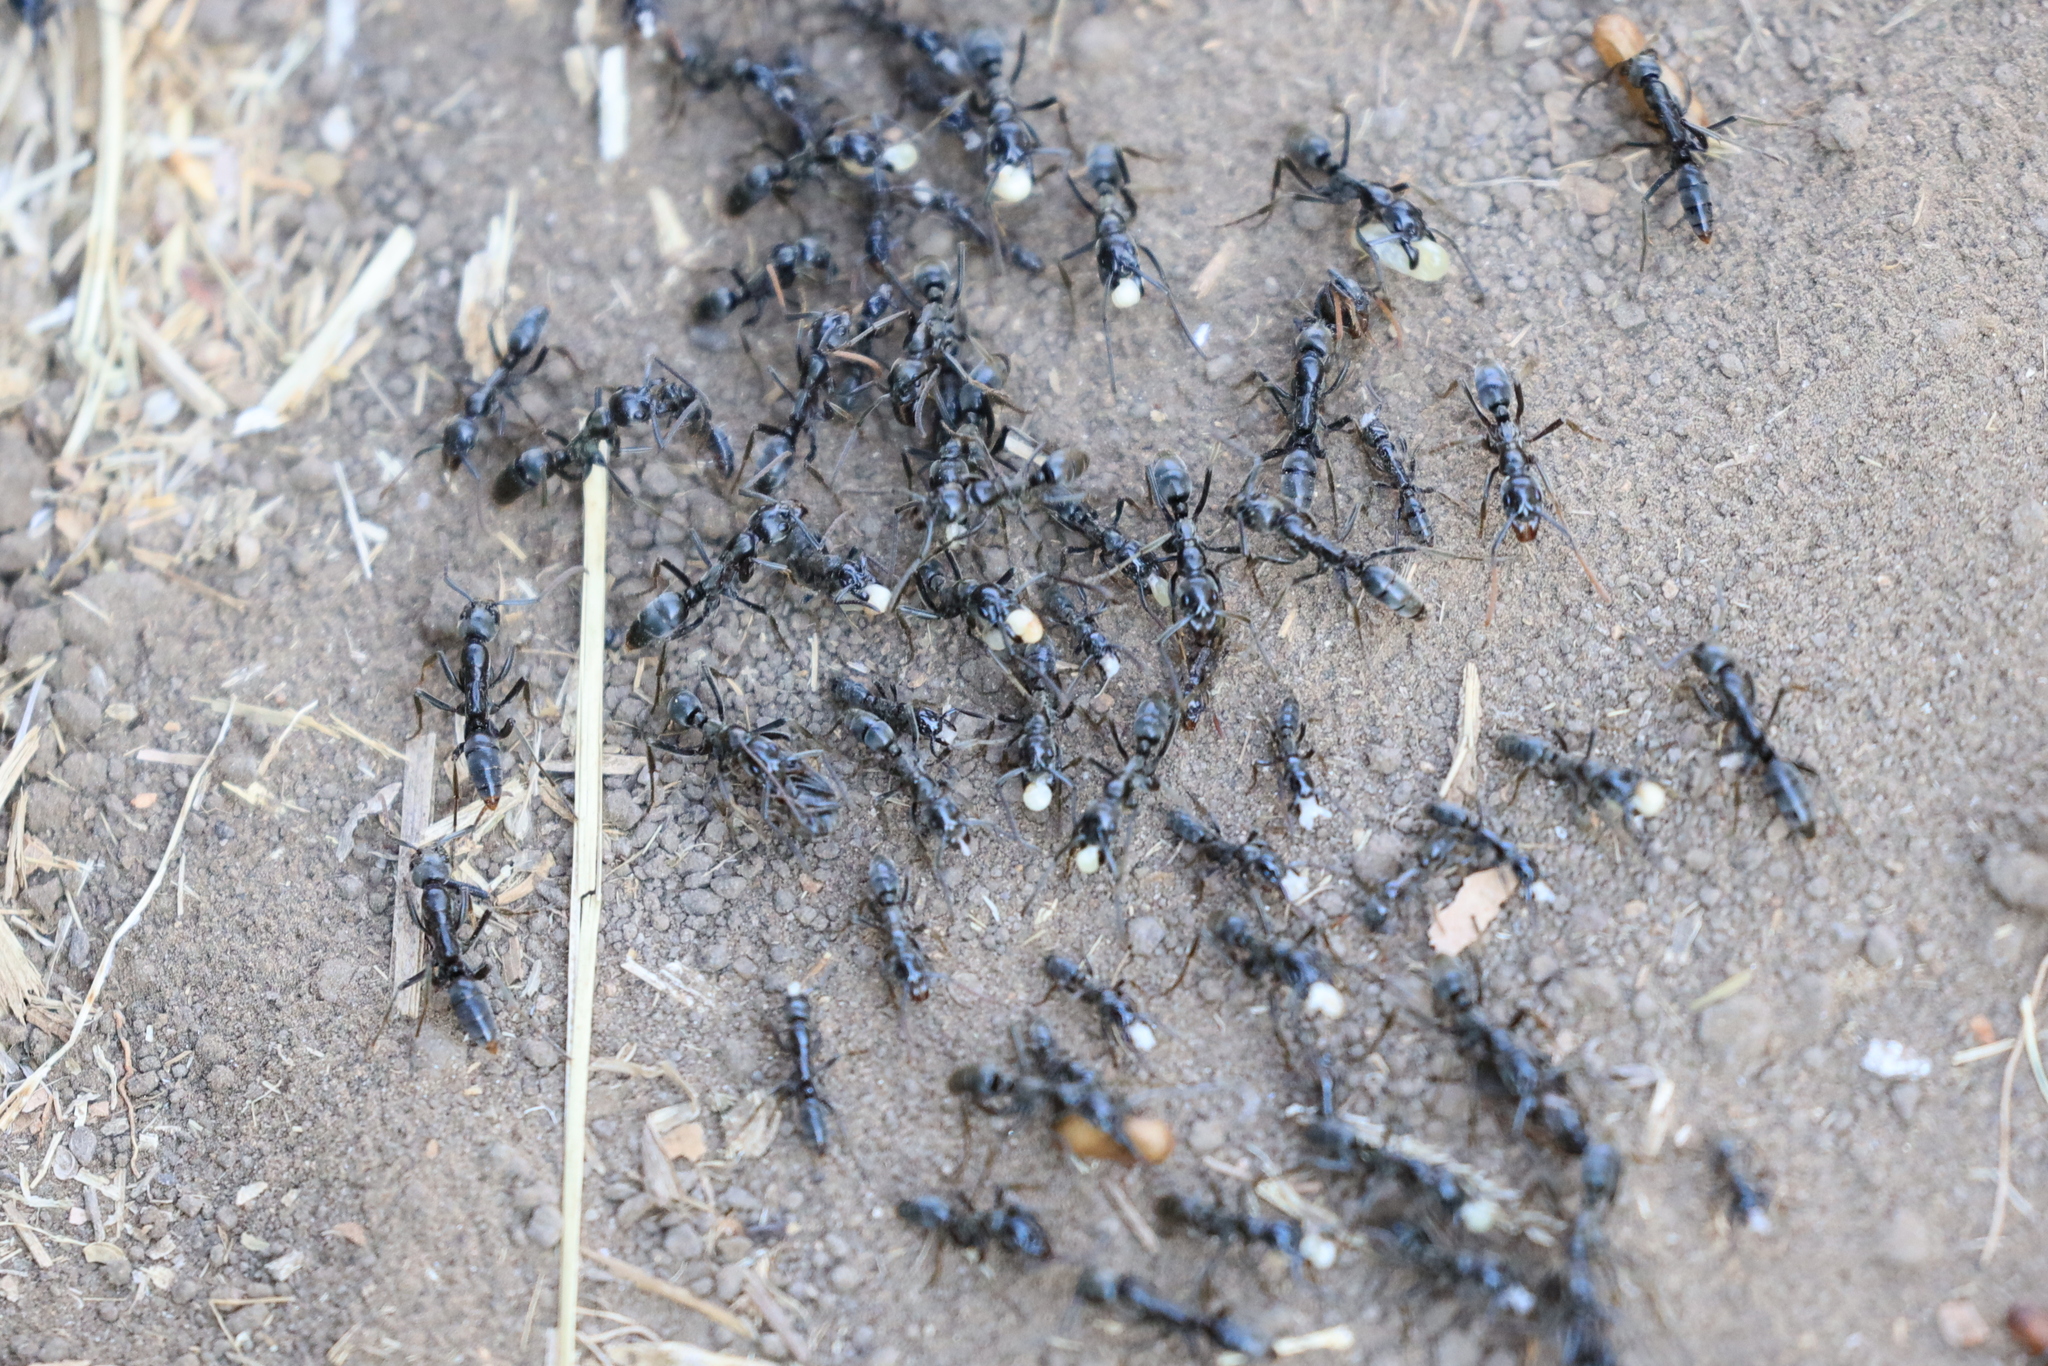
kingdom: Animalia
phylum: Arthropoda
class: Insecta
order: Hymenoptera
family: Formicidae
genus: Megaponera
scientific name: Megaponera analis
